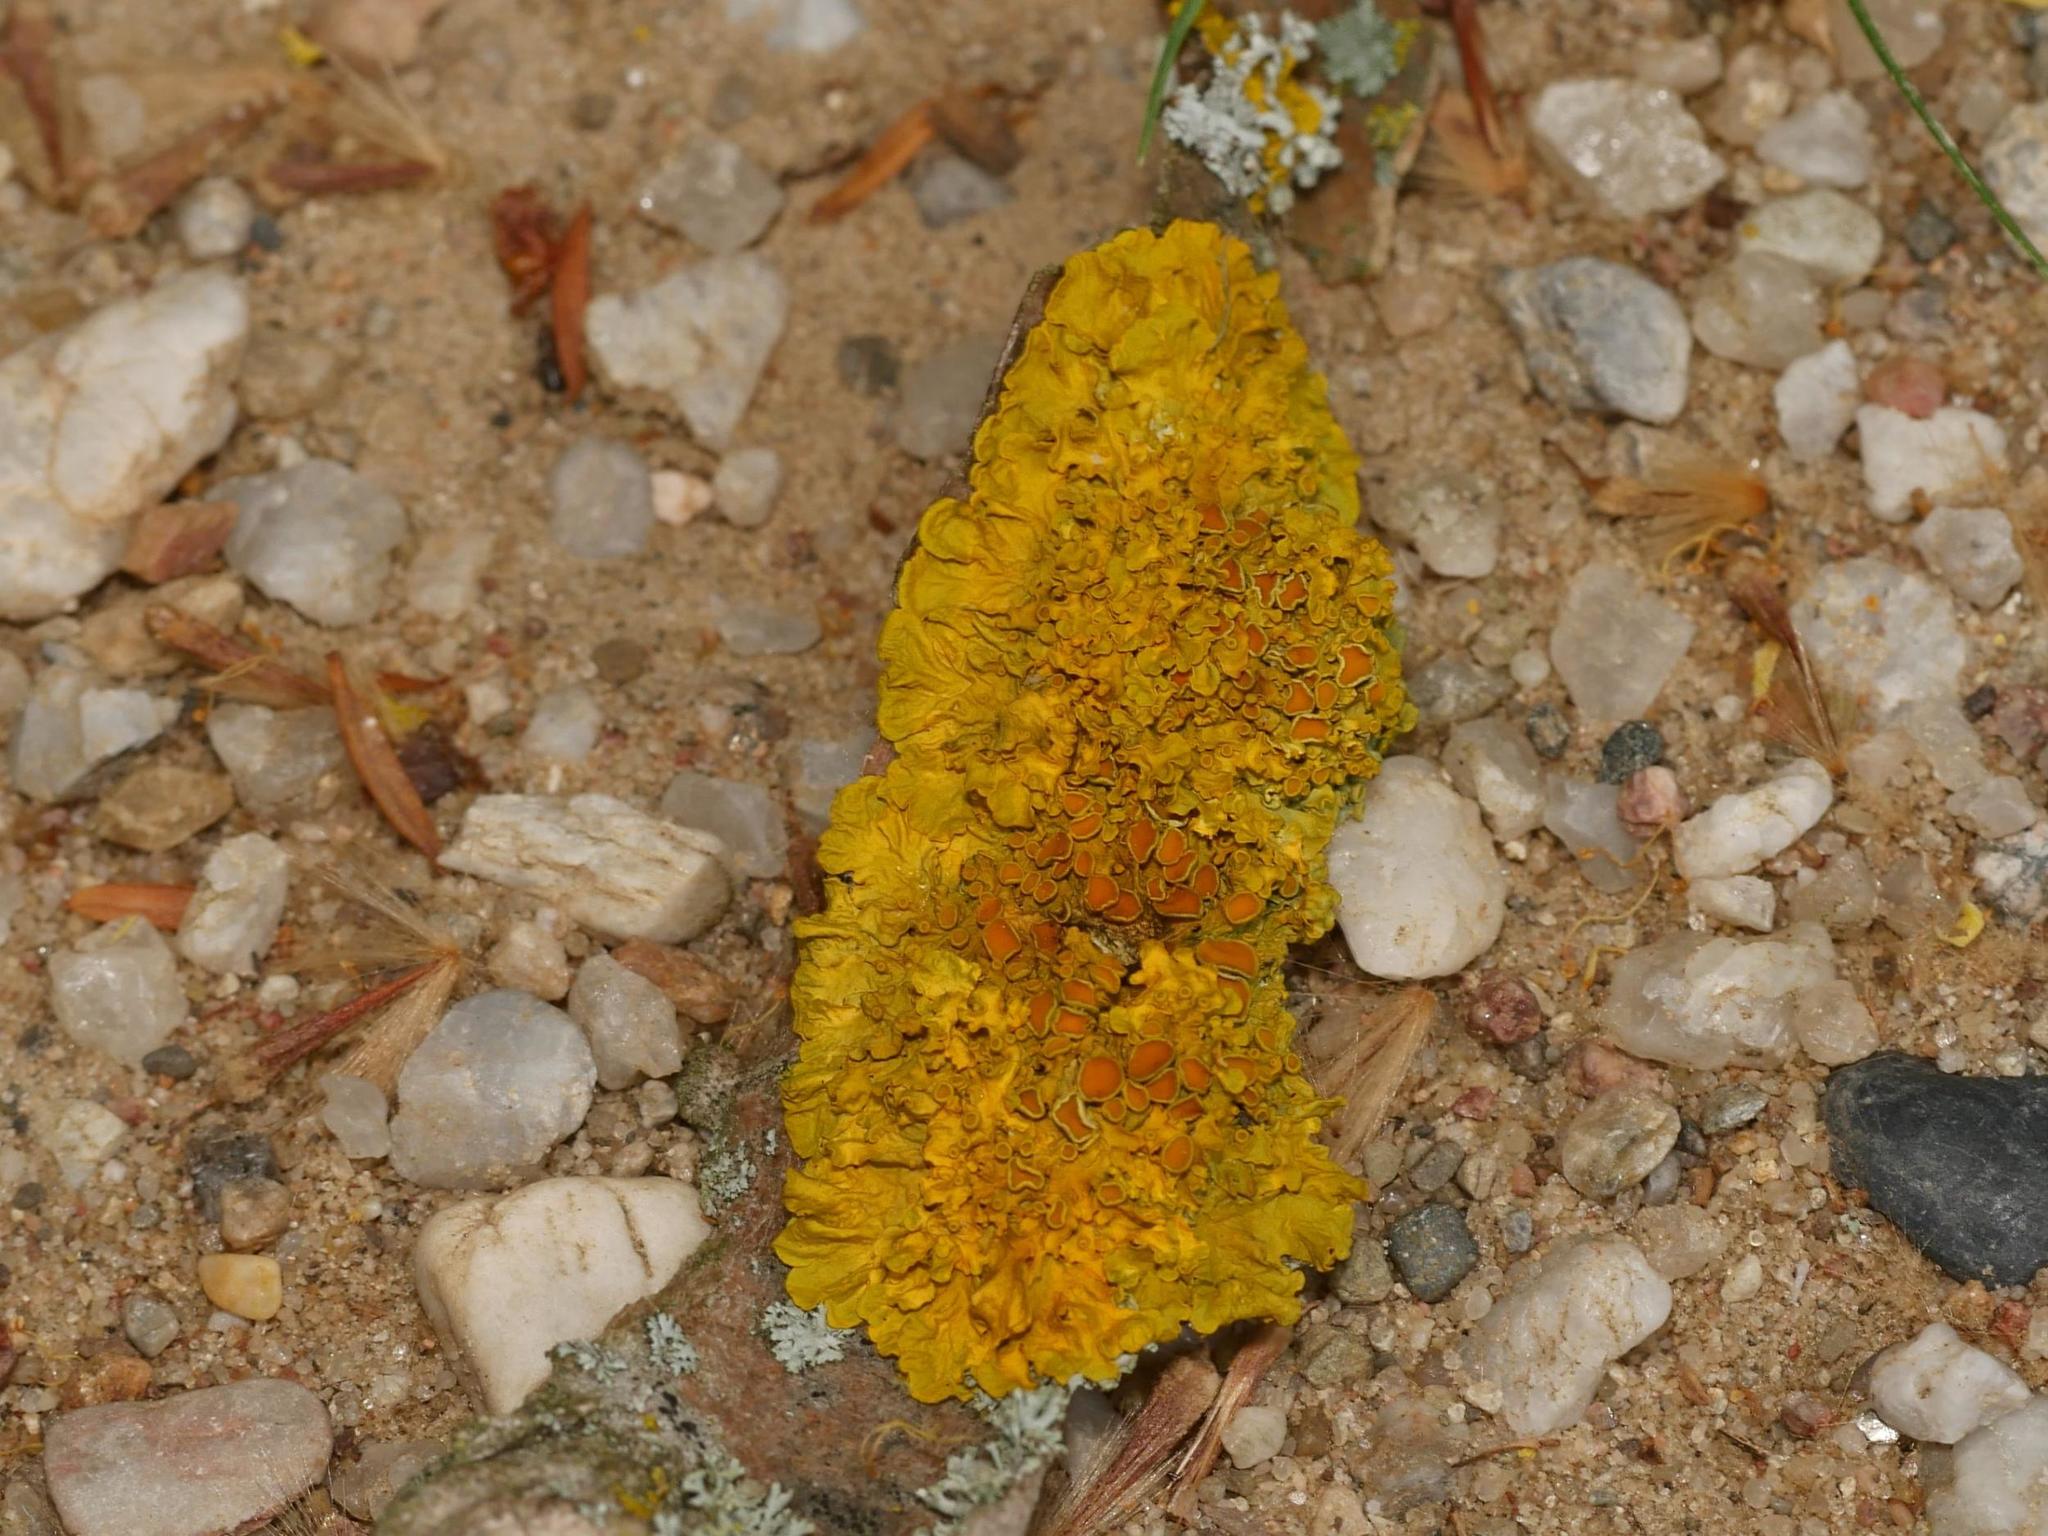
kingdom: Fungi
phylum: Ascomycota
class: Lecanoromycetes
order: Teloschistales
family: Teloschistaceae
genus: Xanthoria
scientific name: Xanthoria parietina
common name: Common orange lichen
